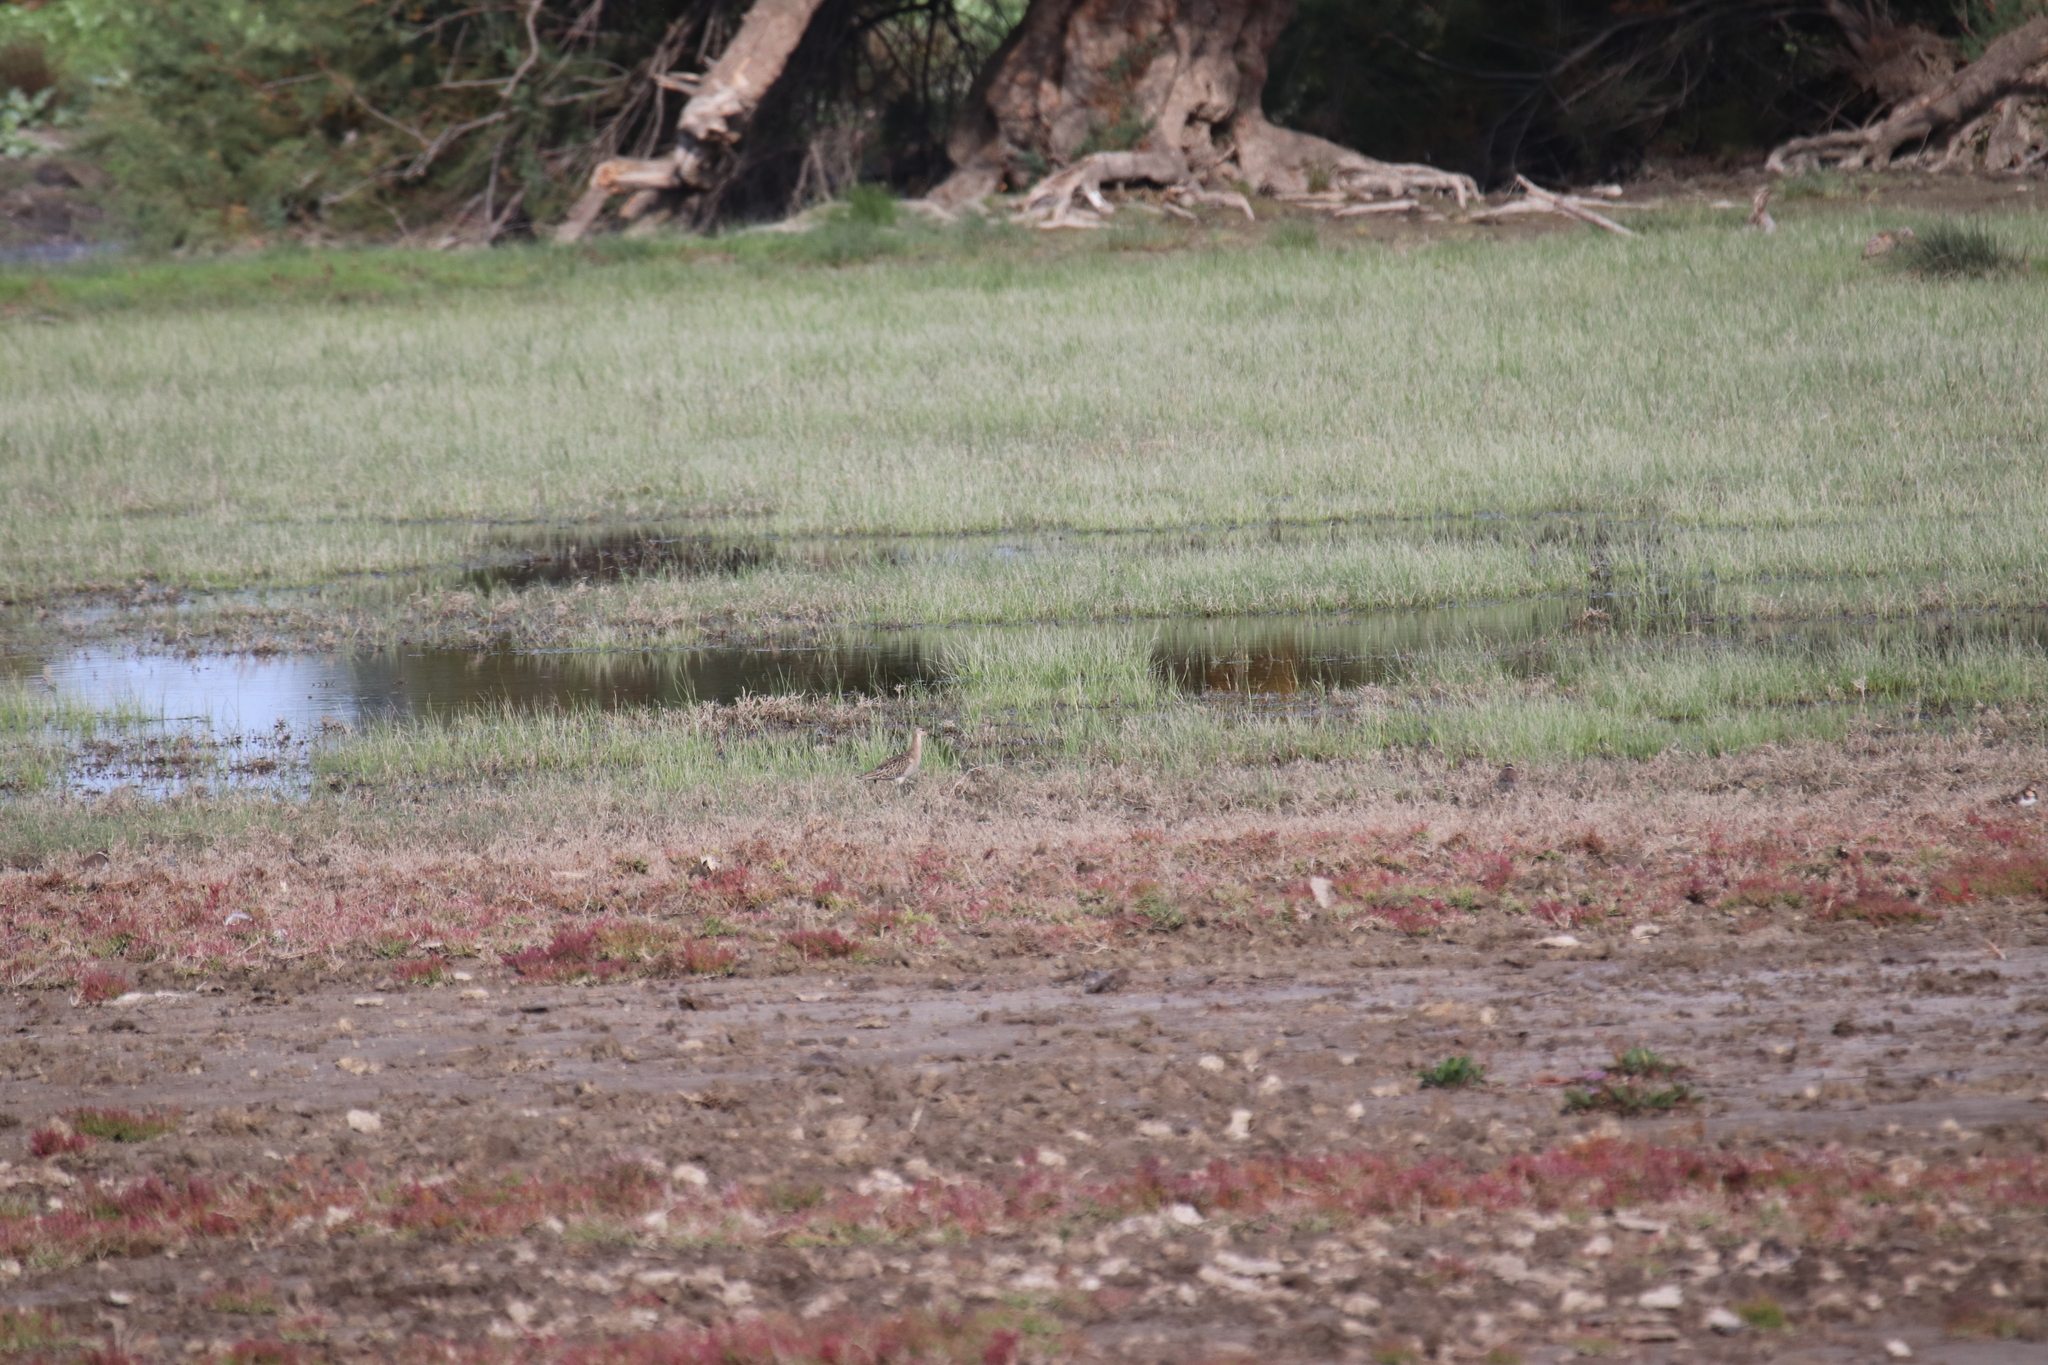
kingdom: Animalia
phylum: Chordata
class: Aves
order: Charadriiformes
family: Scolopacidae
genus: Calidris
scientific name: Calidris pugnax
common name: Ruff
